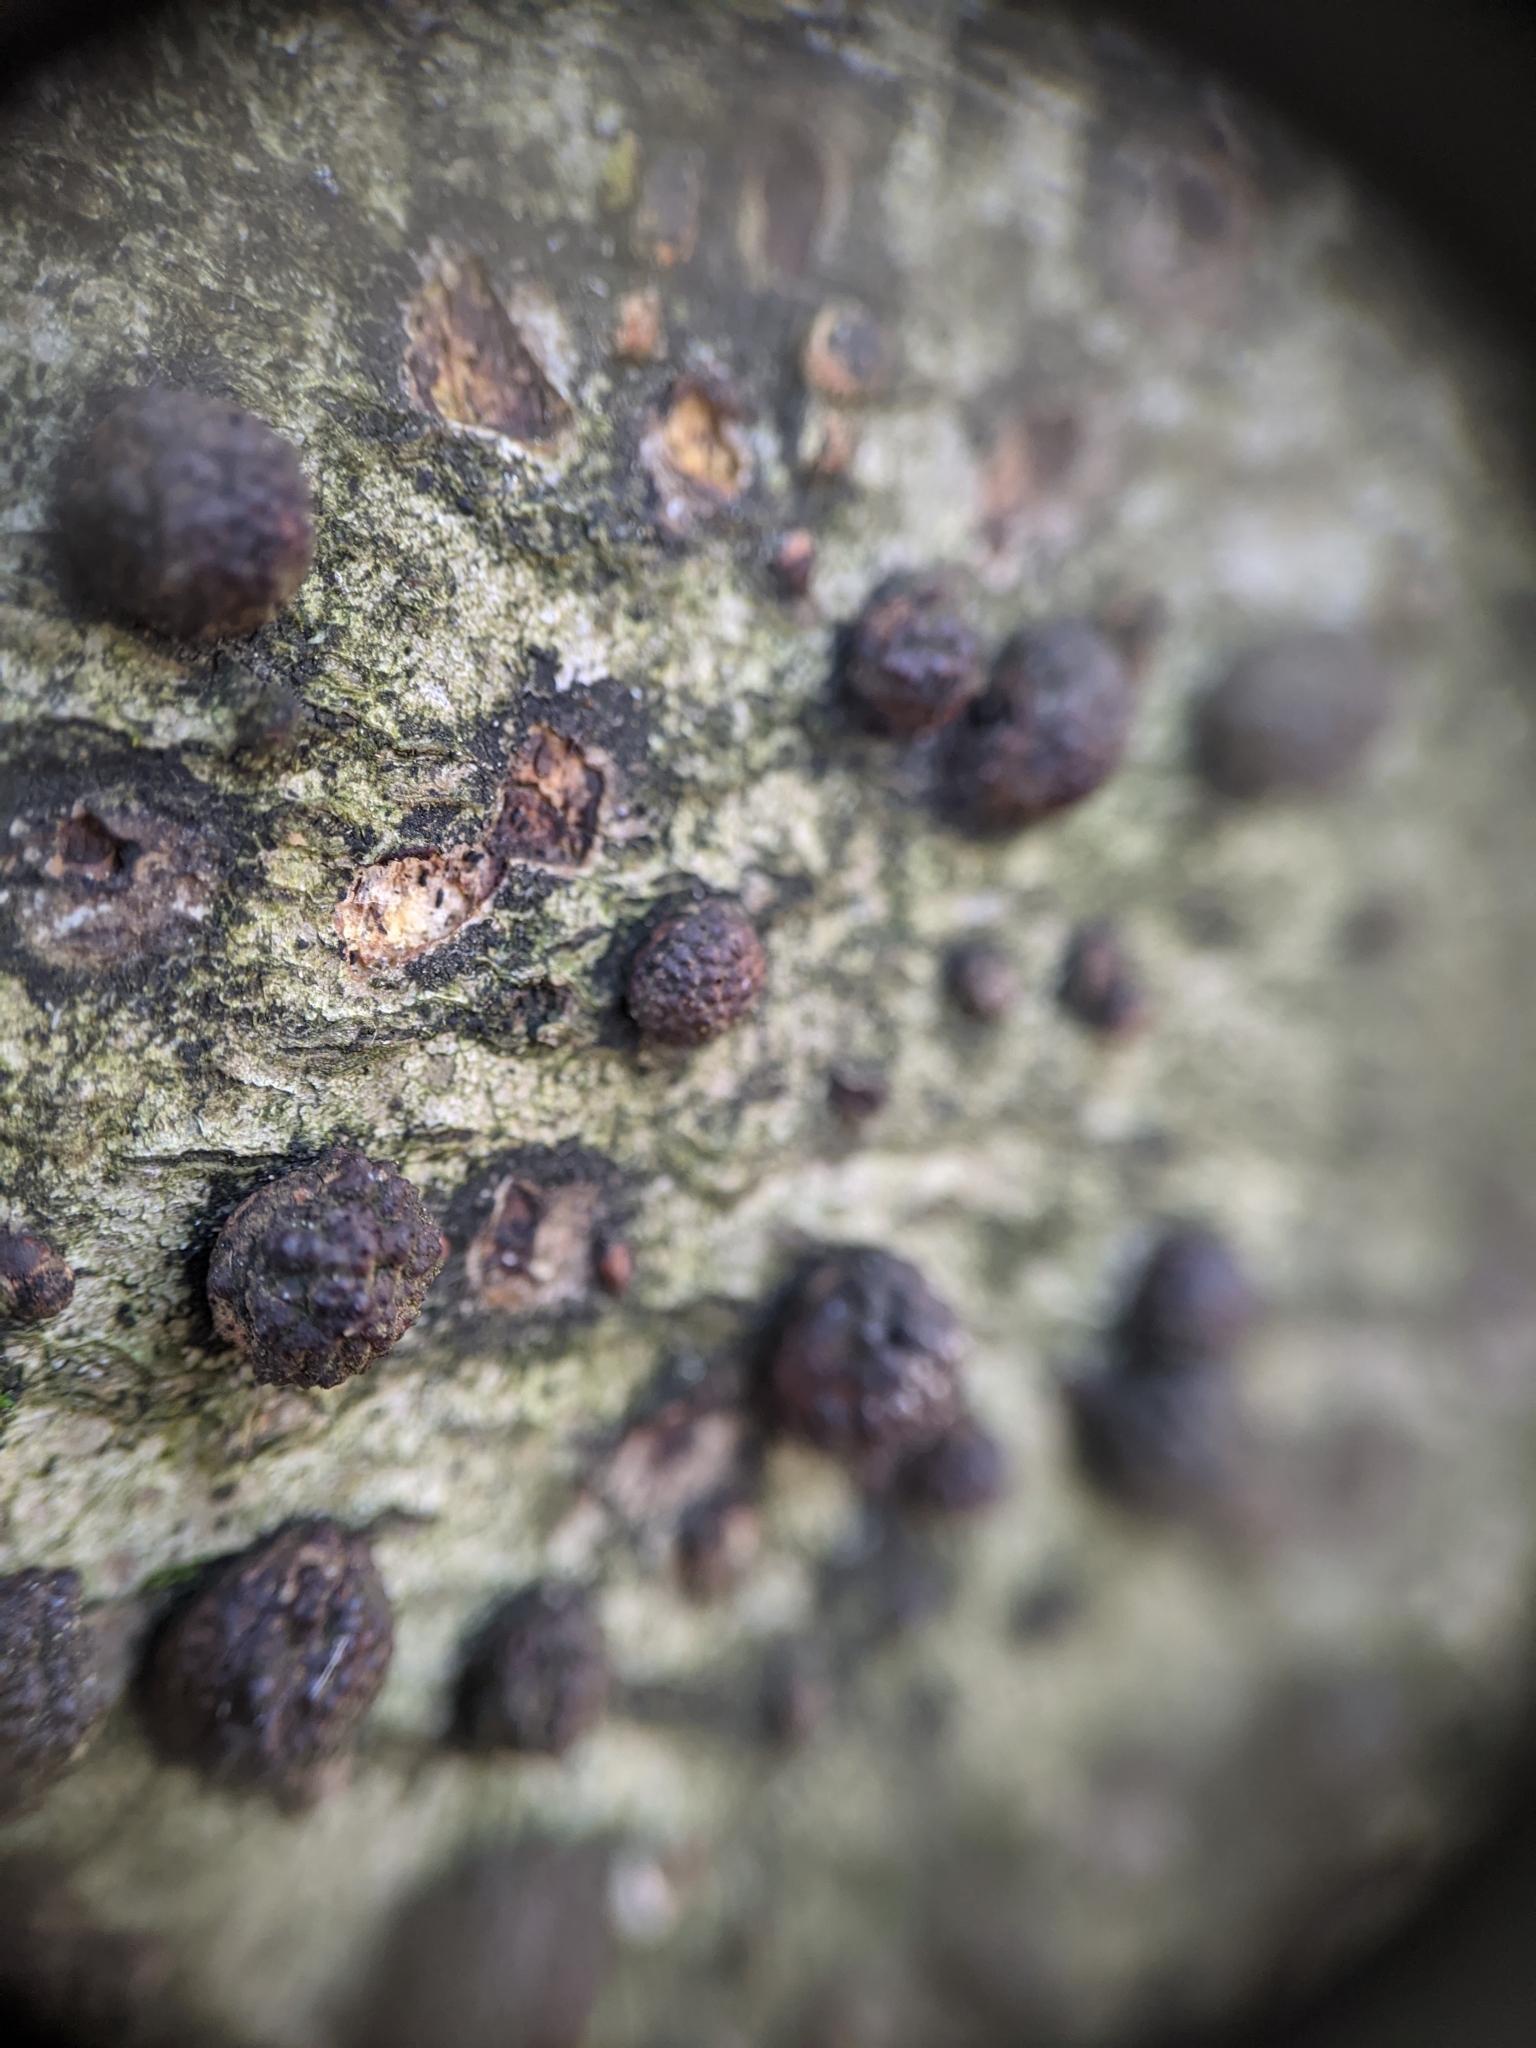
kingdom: Fungi
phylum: Ascomycota
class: Sordariomycetes
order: Xylariales
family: Hypoxylaceae
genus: Hypoxylon
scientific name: Hypoxylon fragiforme
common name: Beech woodwart
